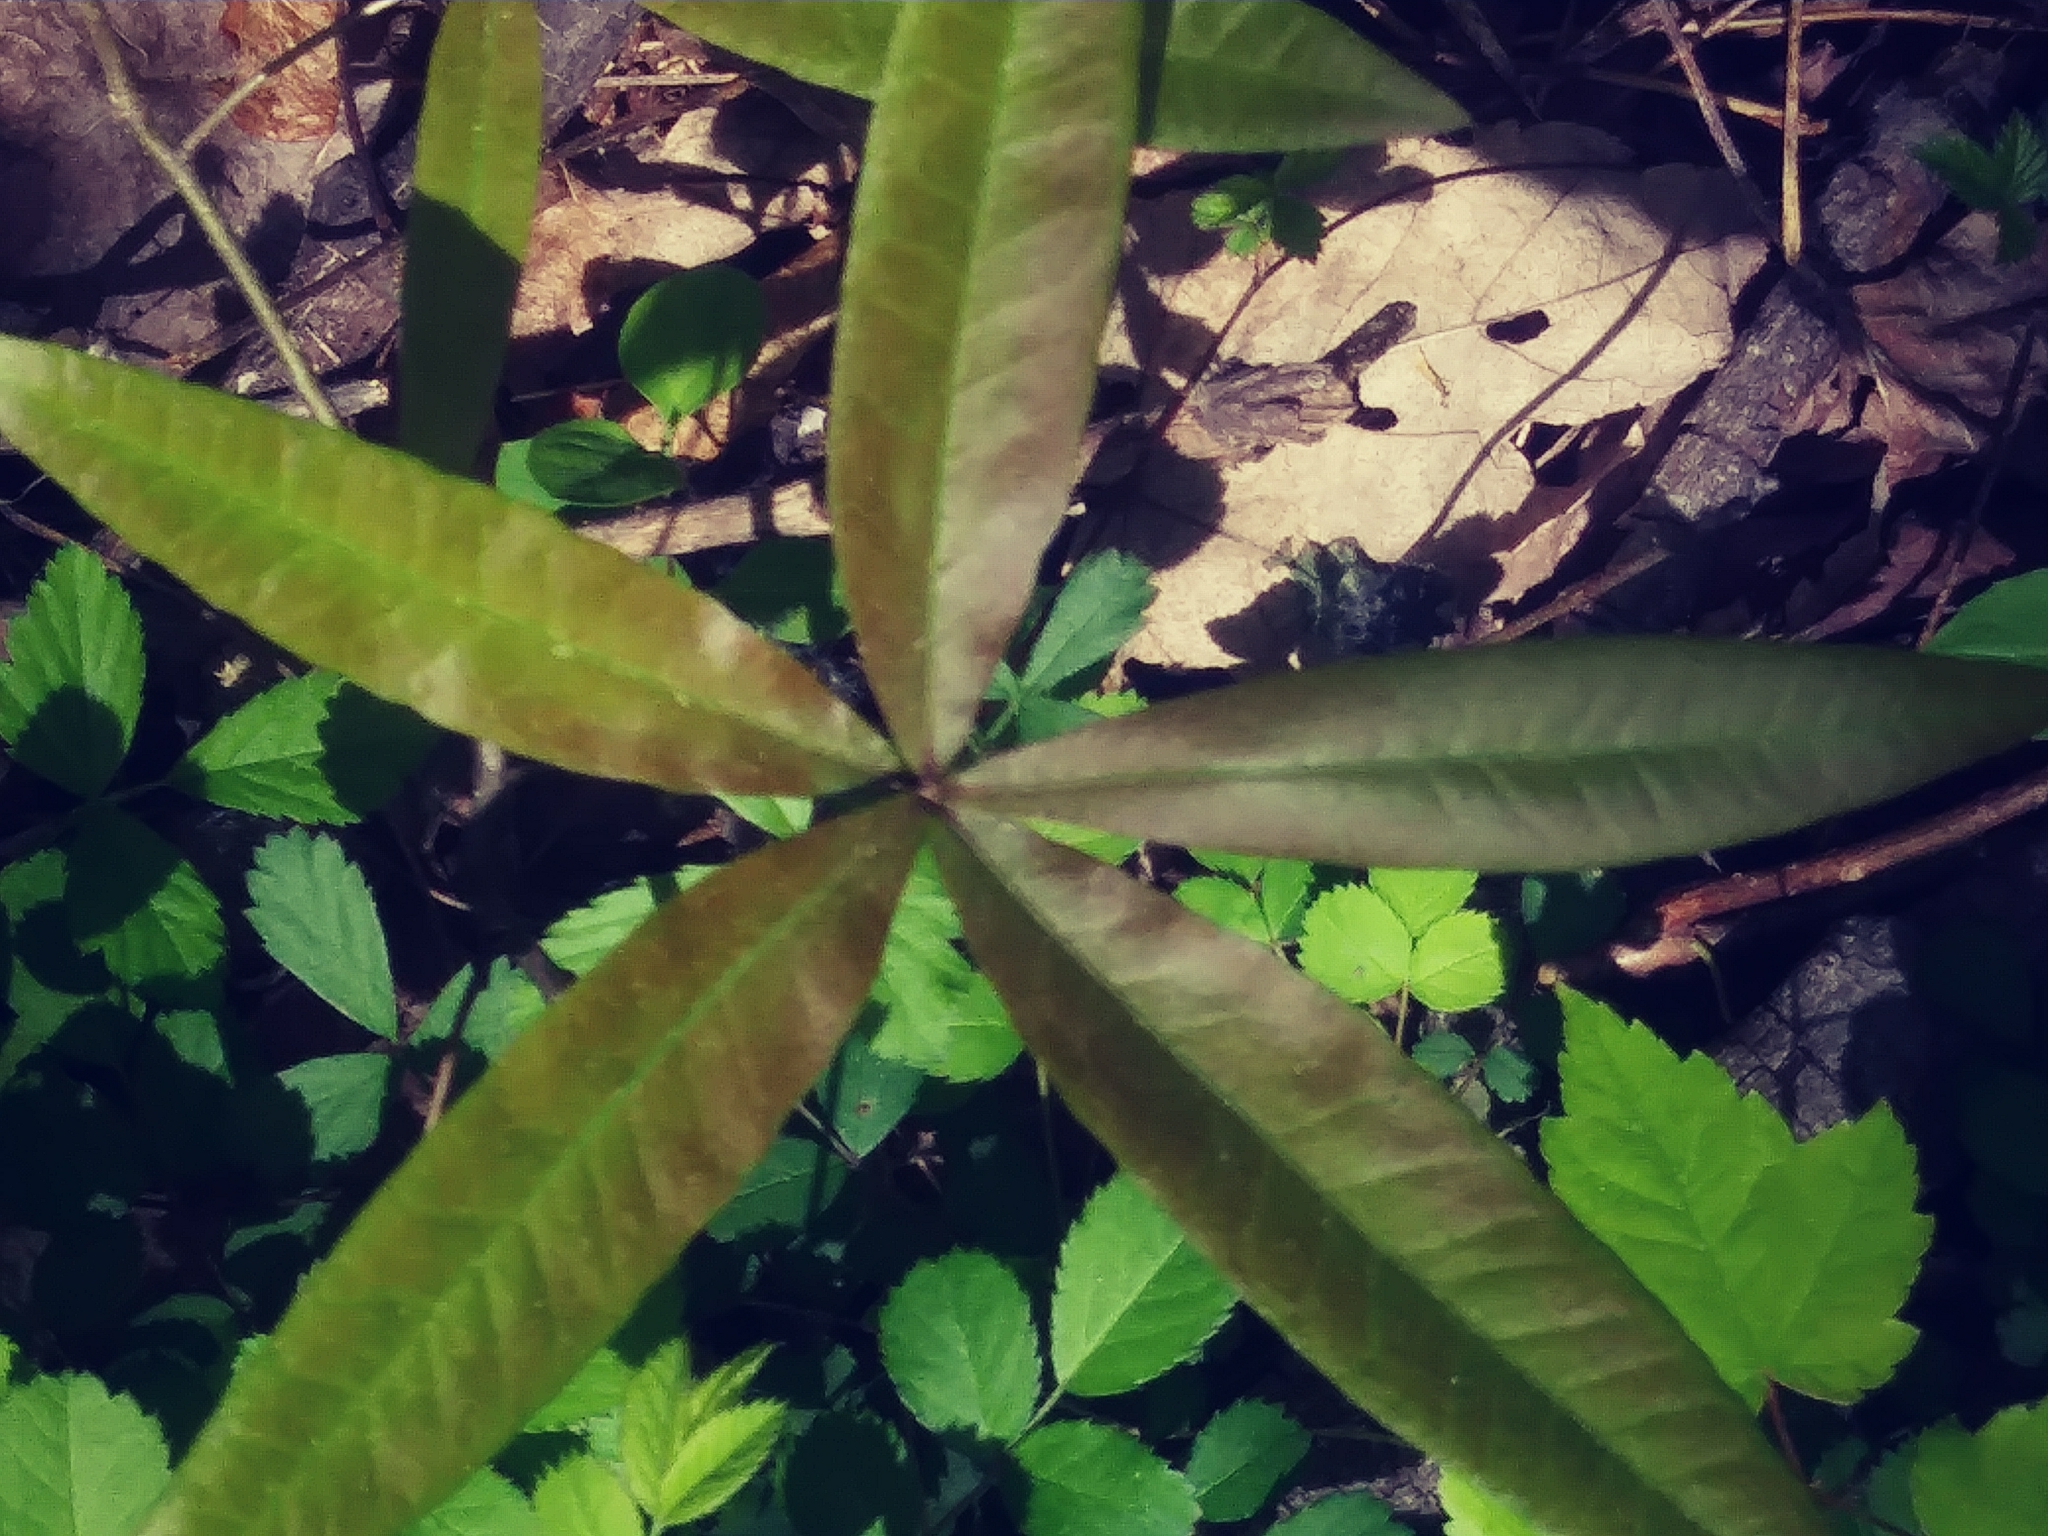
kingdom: Plantae
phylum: Tracheophyta
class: Magnoliopsida
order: Fagales
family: Fagaceae
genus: Quercus
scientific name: Quercus phellos
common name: Willow oak
